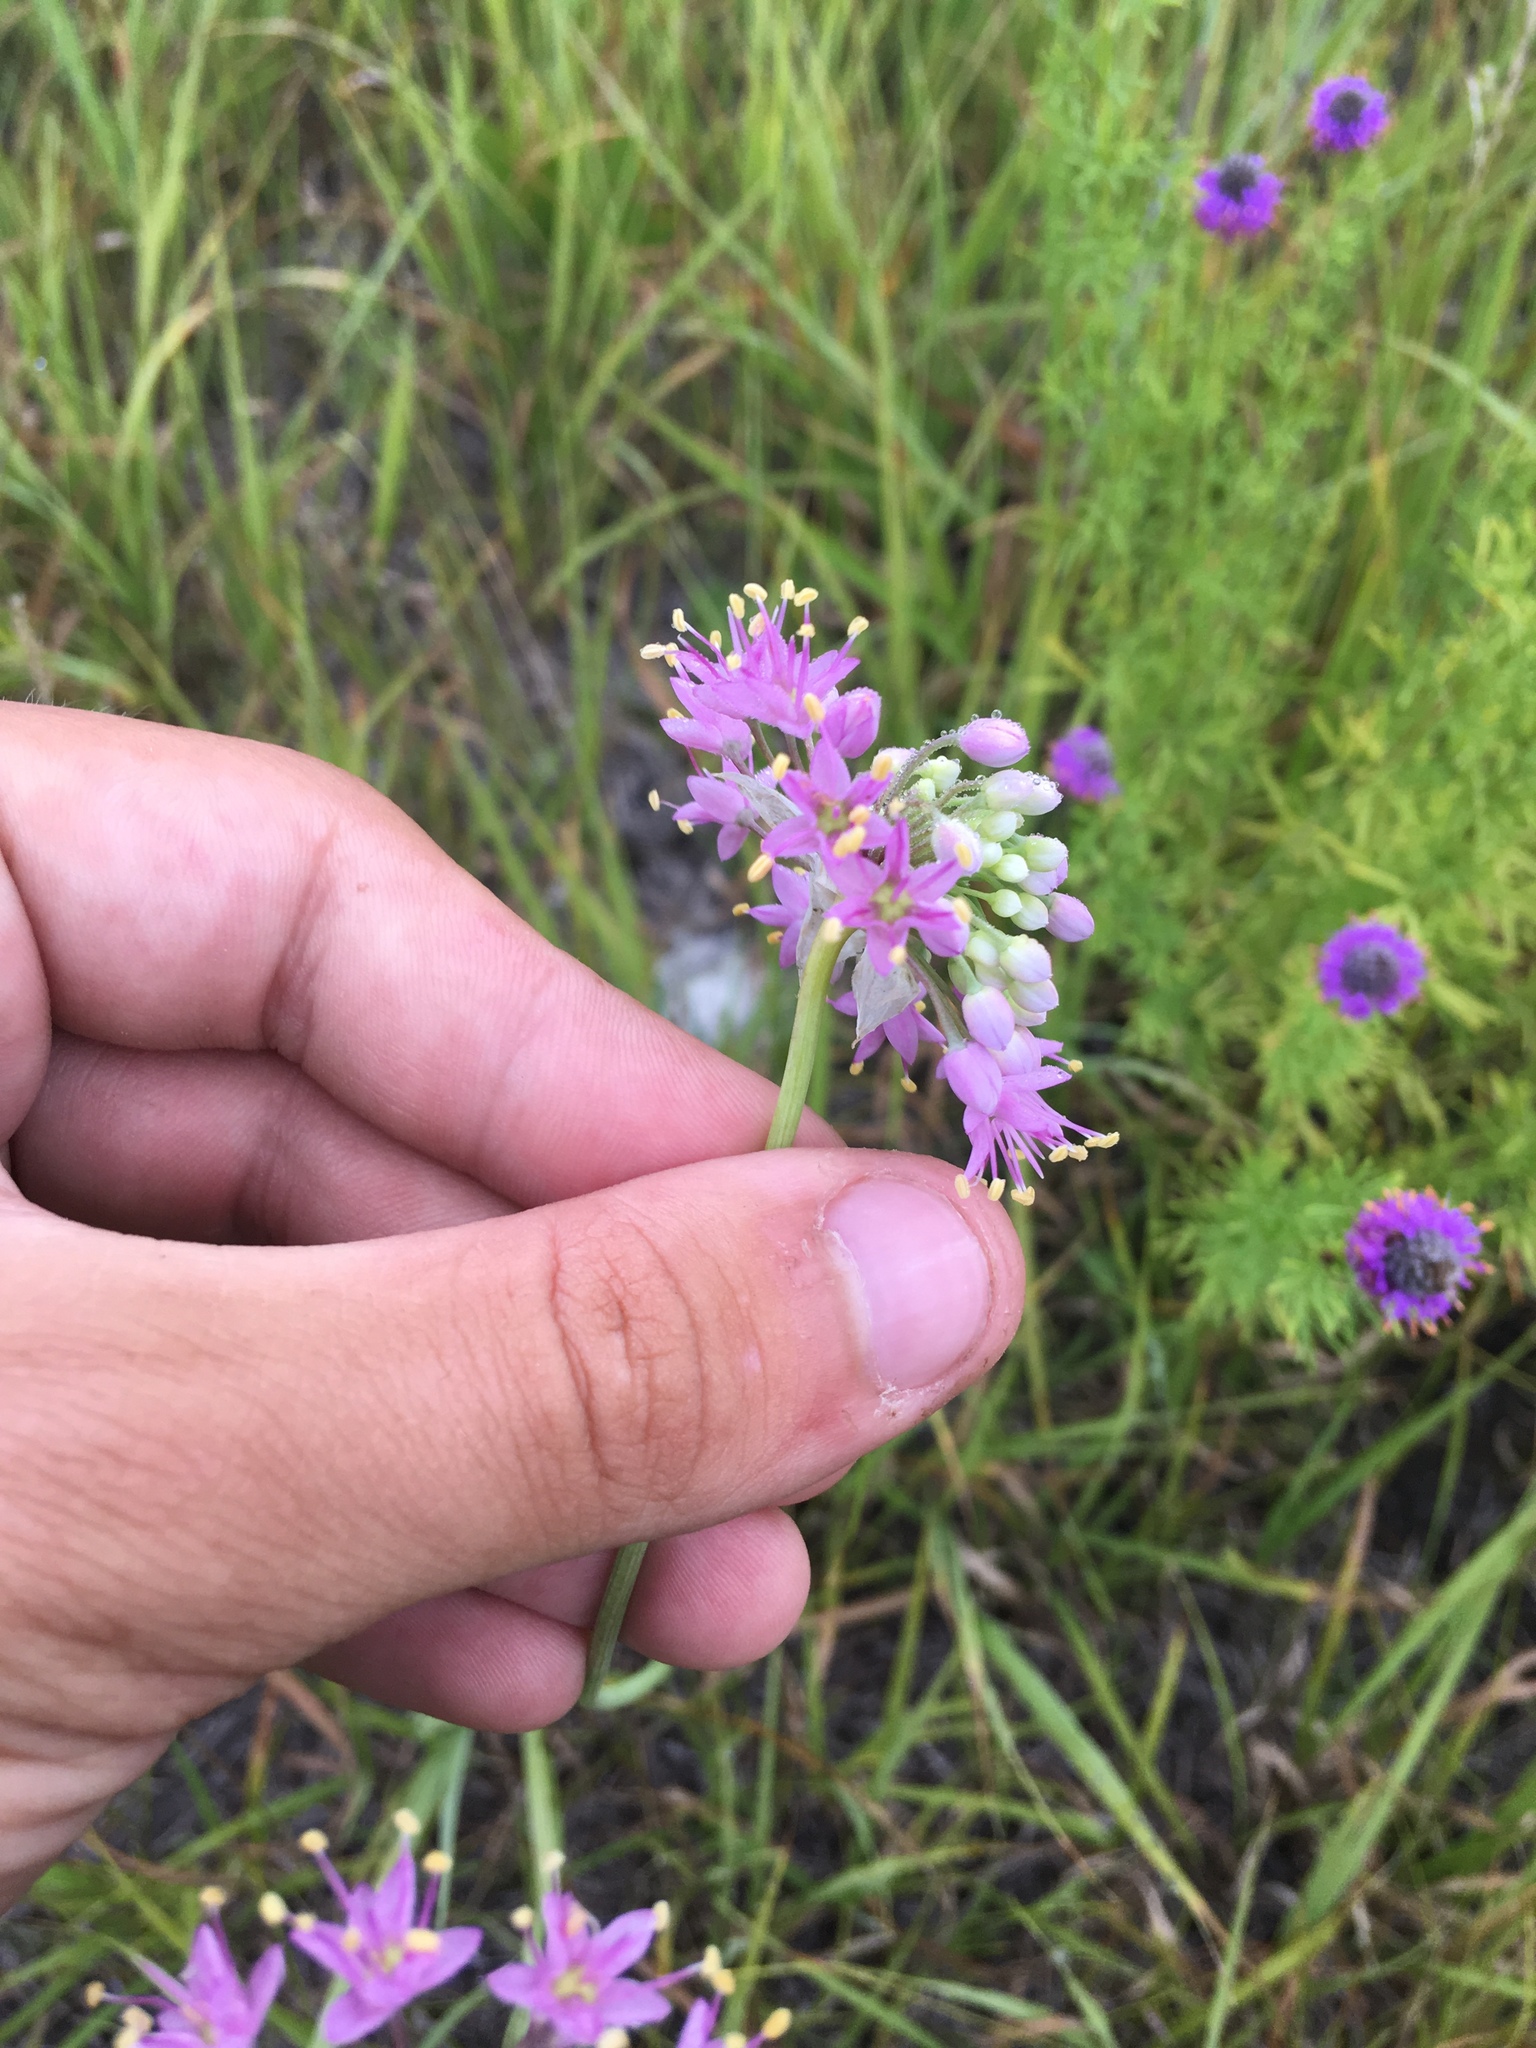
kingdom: Plantae
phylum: Tracheophyta
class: Liliopsida
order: Asparagales
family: Amaryllidaceae
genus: Allium
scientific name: Allium stellatum
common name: Autumn onion
